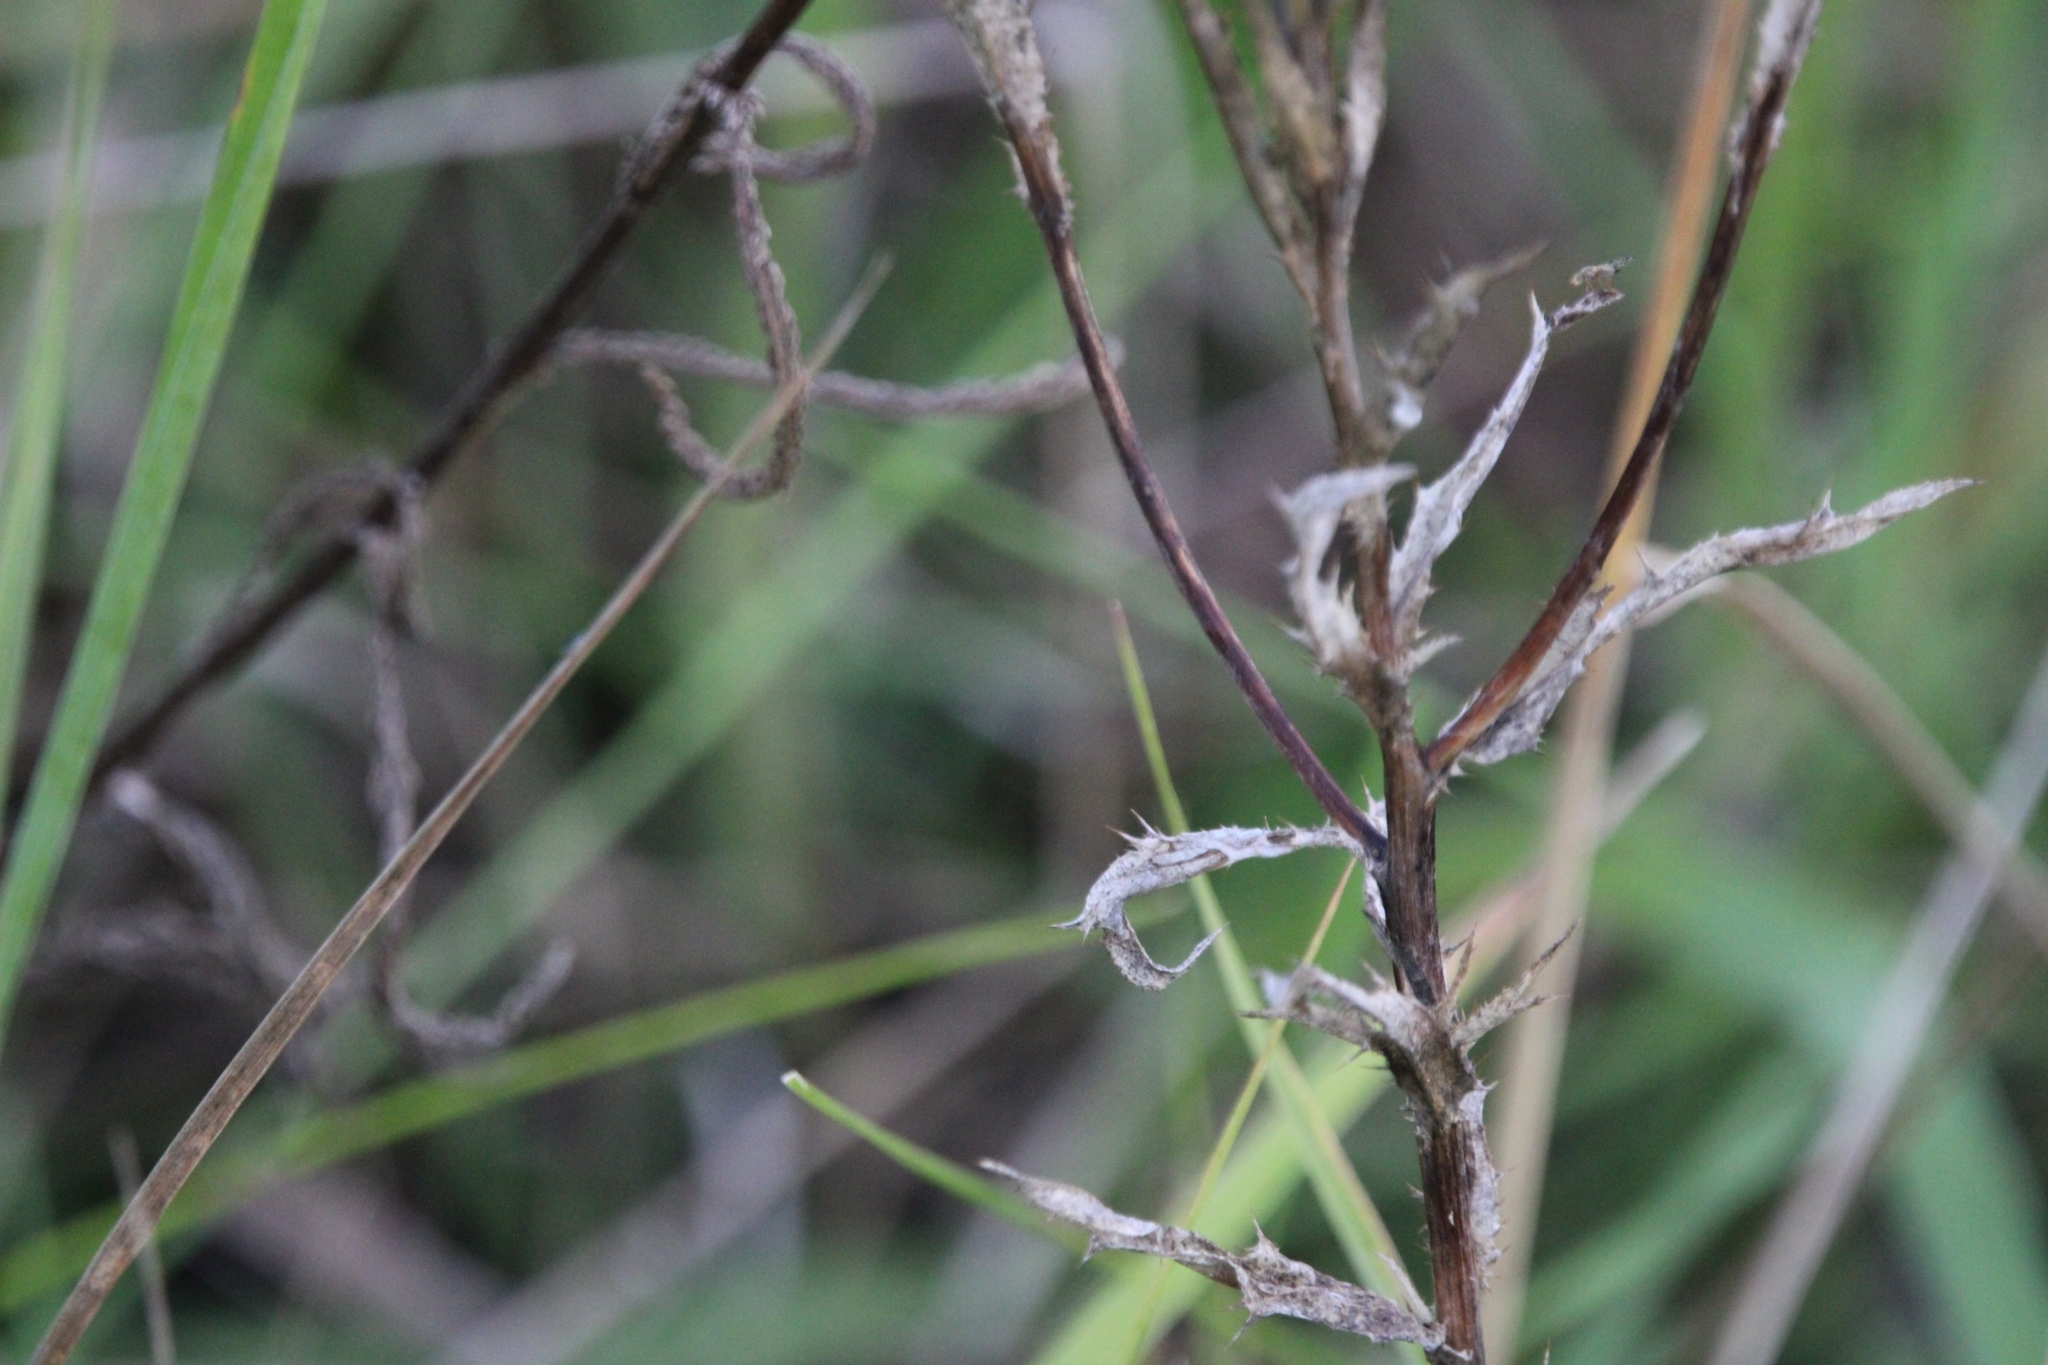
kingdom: Plantae
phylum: Tracheophyta
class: Magnoliopsida
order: Asterales
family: Asteraceae
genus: Carlina
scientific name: Carlina biebersteinii
